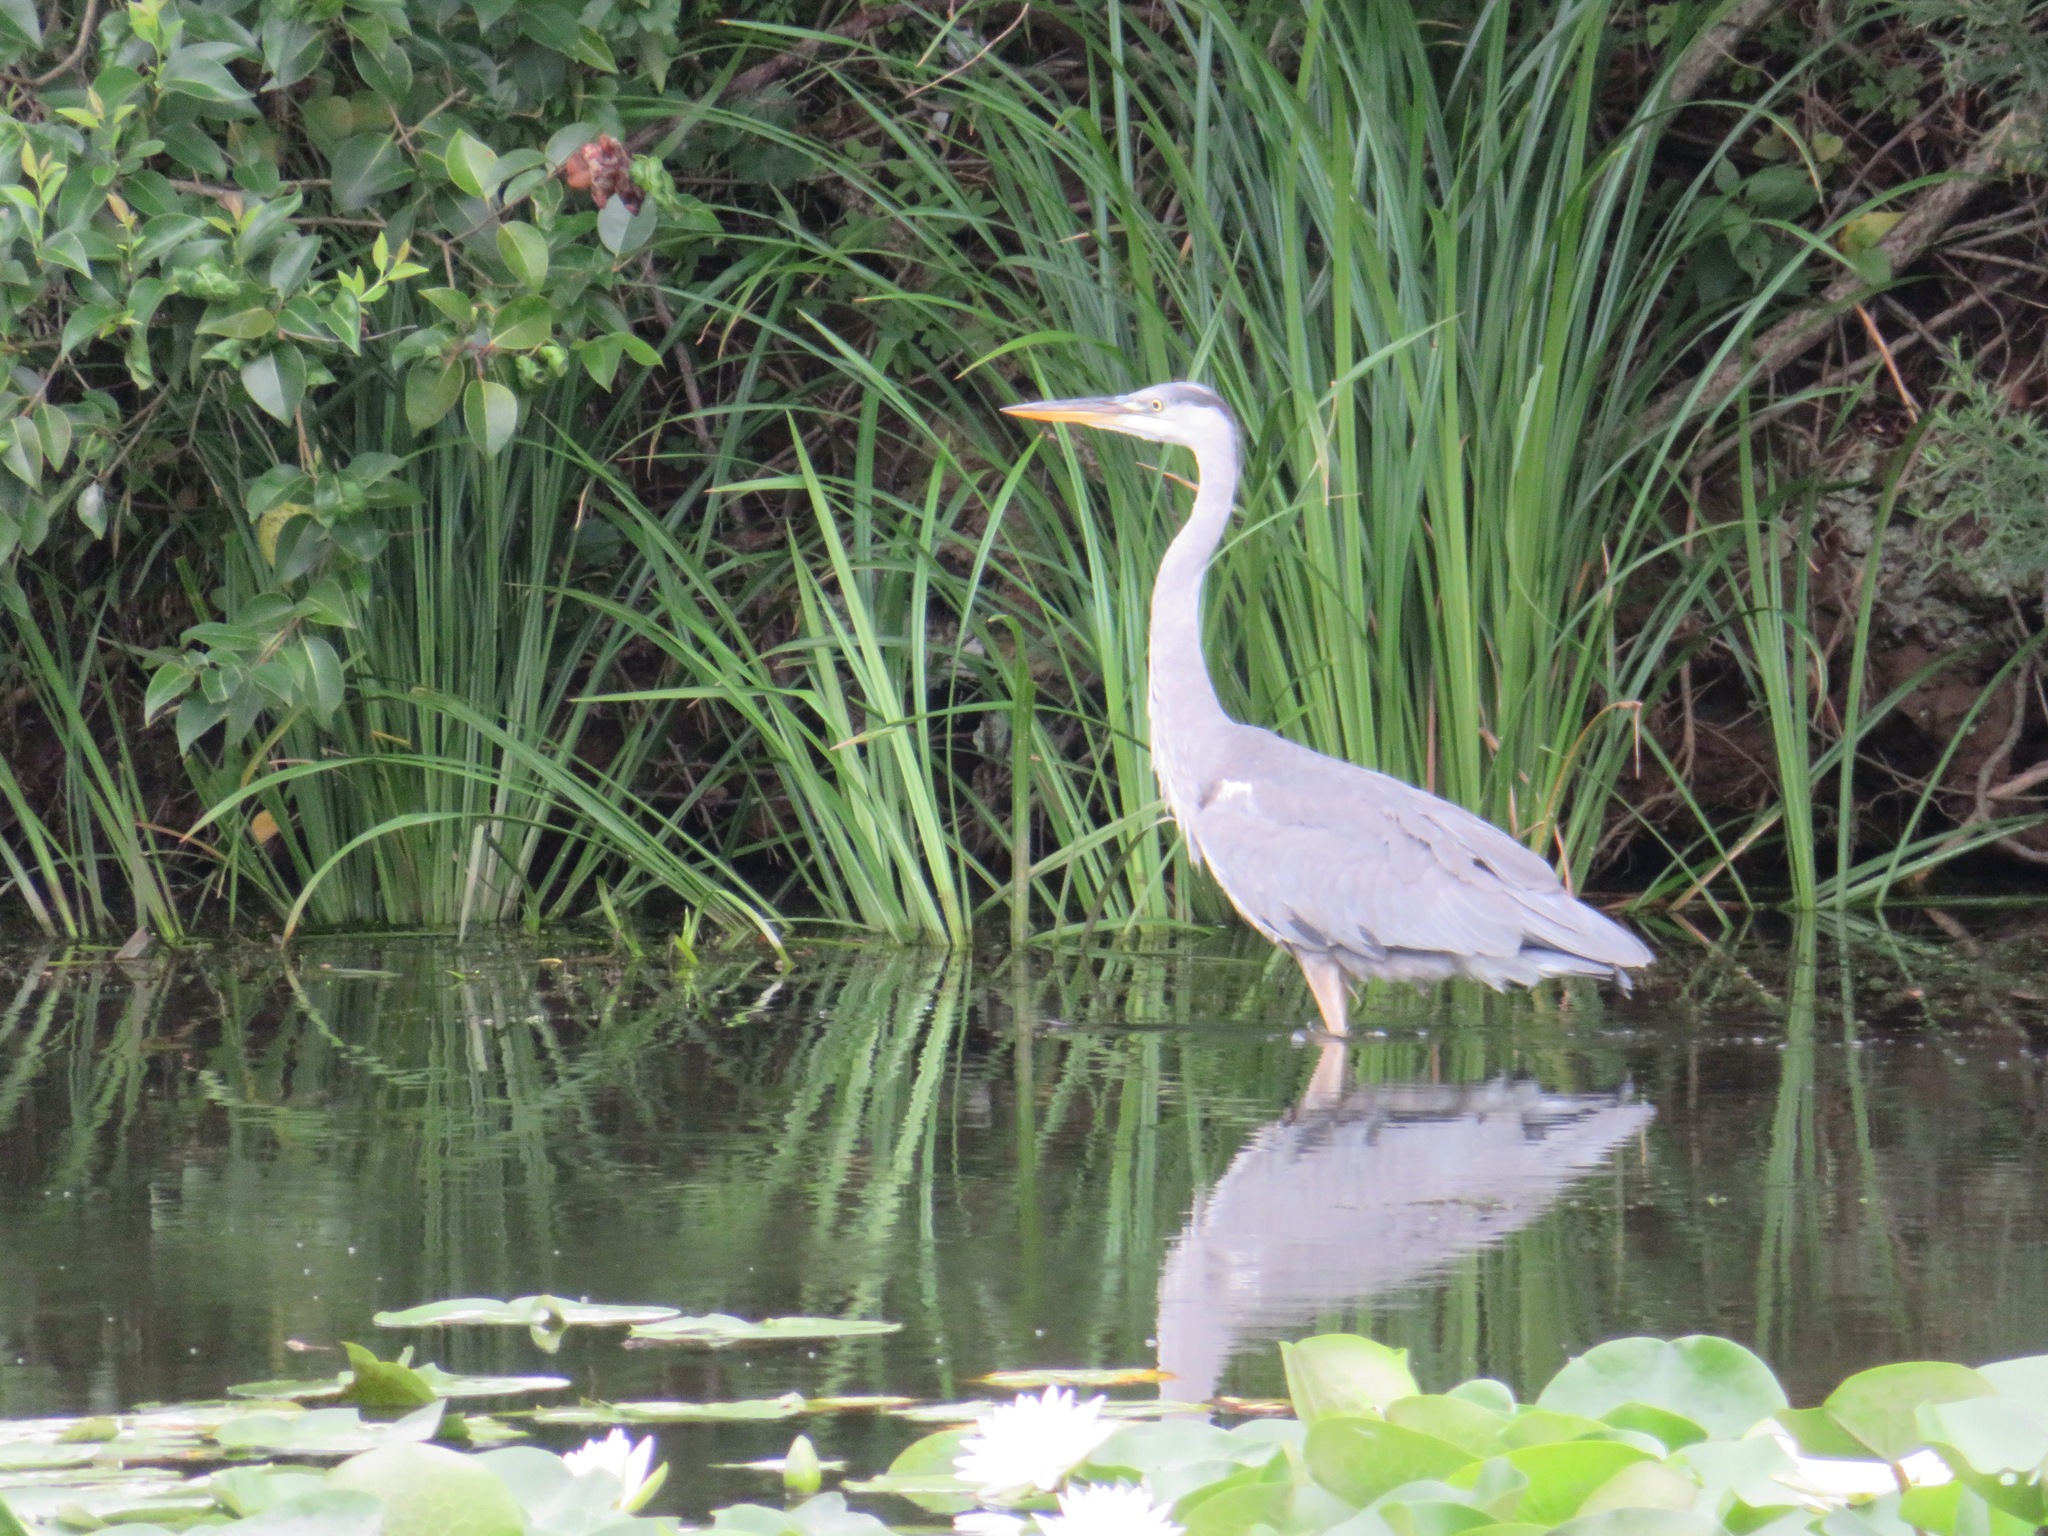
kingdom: Animalia
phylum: Chordata
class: Aves
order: Pelecaniformes
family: Ardeidae
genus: Ardea
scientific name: Ardea cinerea
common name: Grey heron
